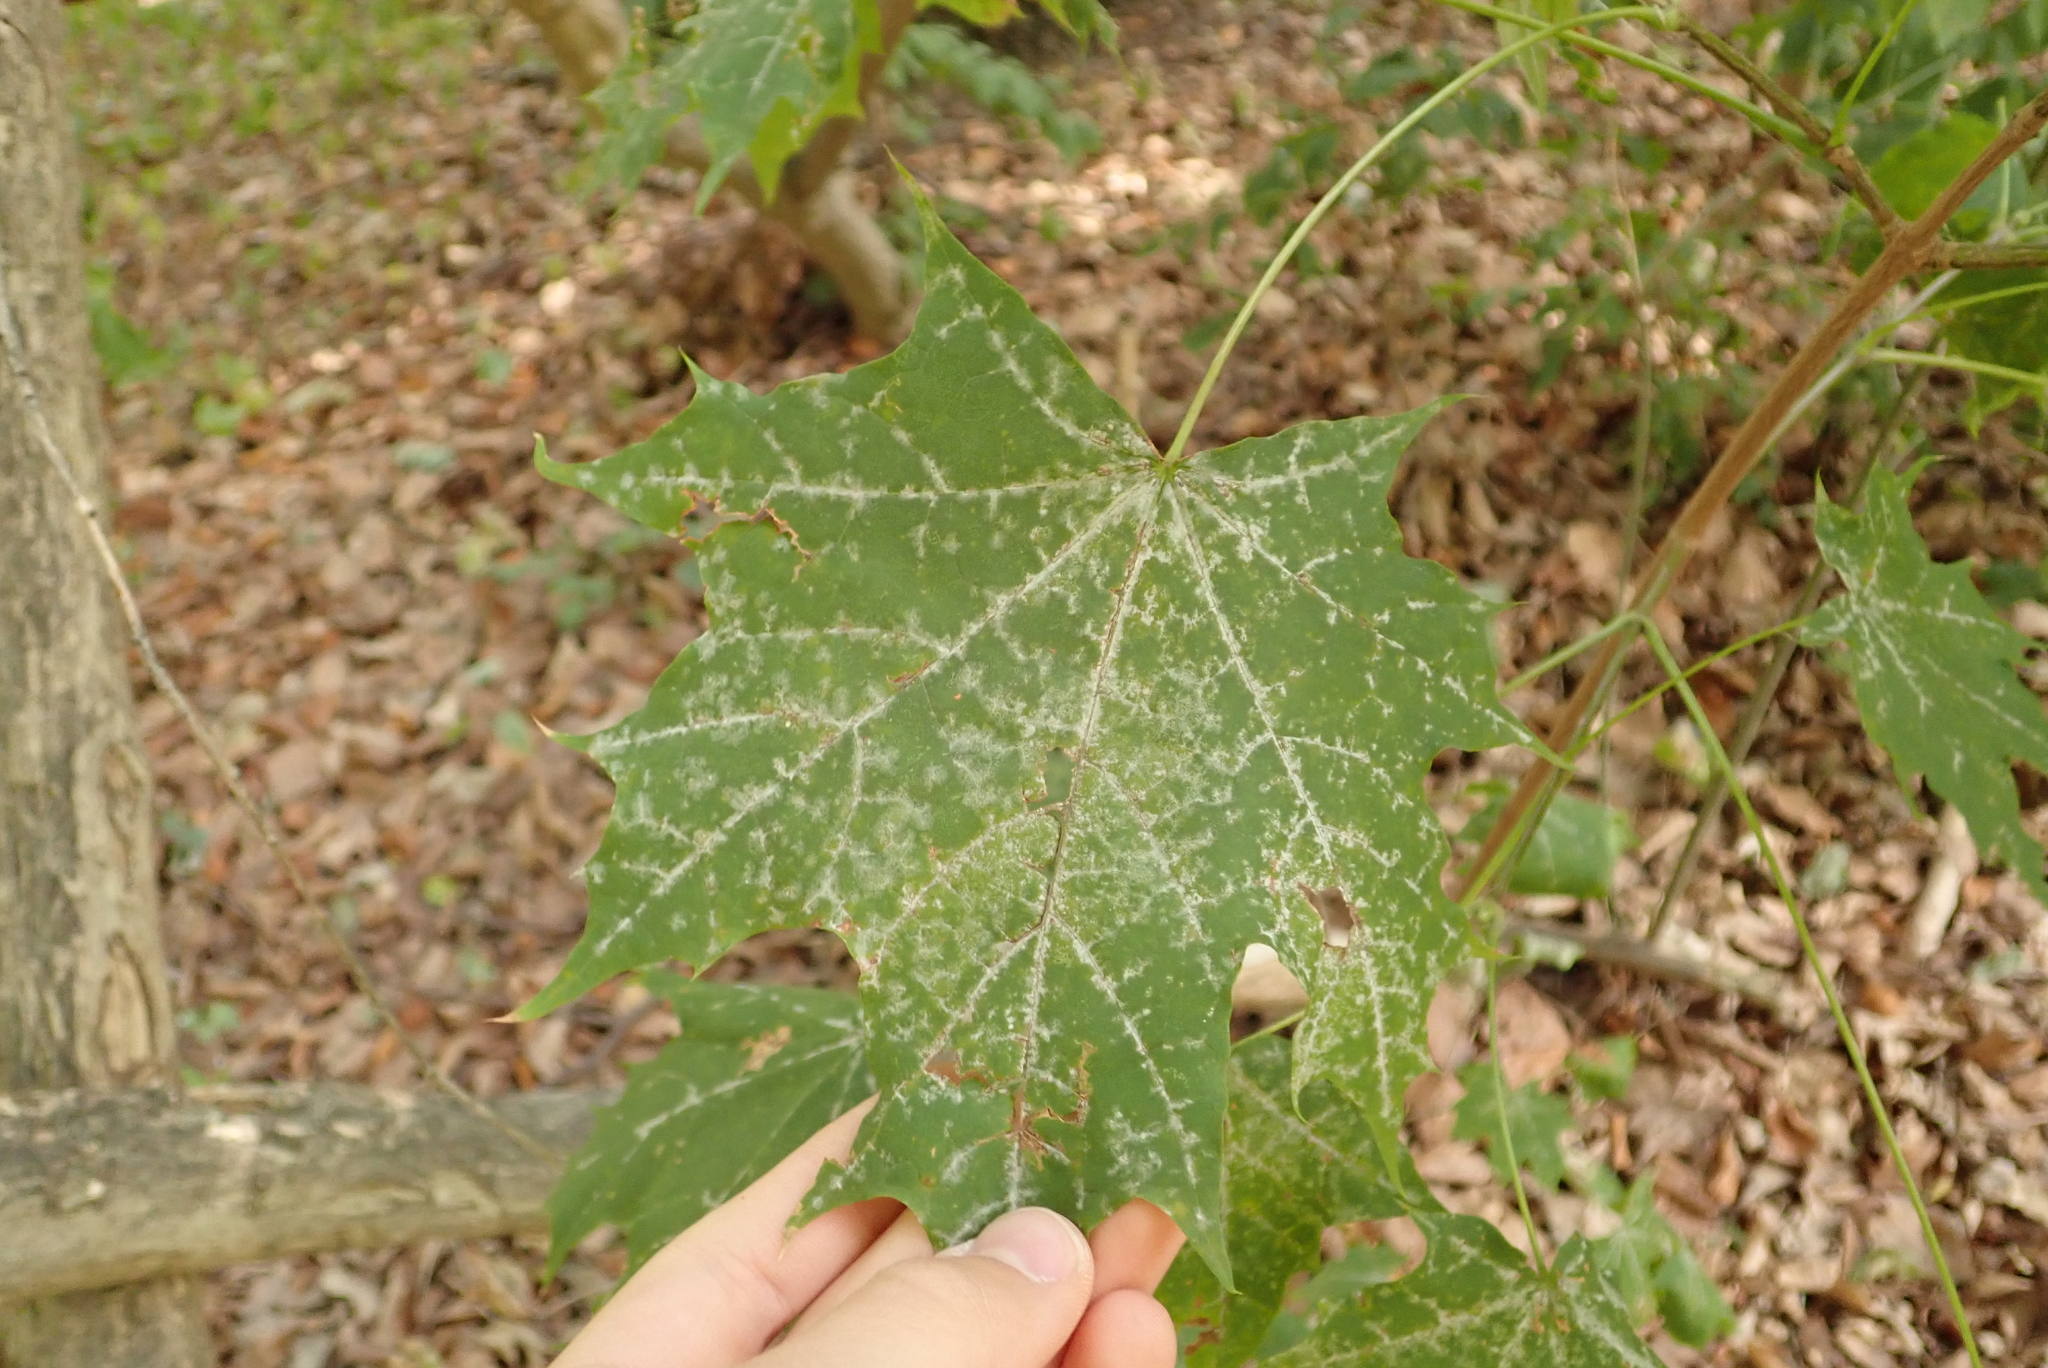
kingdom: Plantae
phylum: Tracheophyta
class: Magnoliopsida
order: Sapindales
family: Sapindaceae
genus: Acer
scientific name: Acer platanoides
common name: Norway maple
